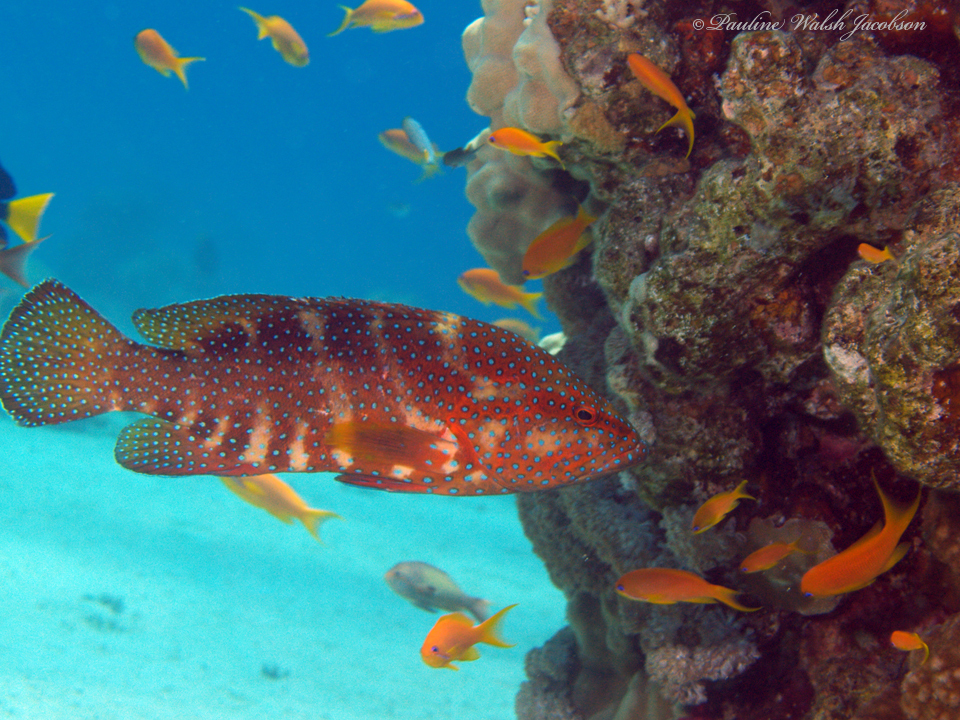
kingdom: Animalia
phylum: Chordata
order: Perciformes
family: Serranidae
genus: Cephalopholis
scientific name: Cephalopholis miniata
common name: Coral hind
